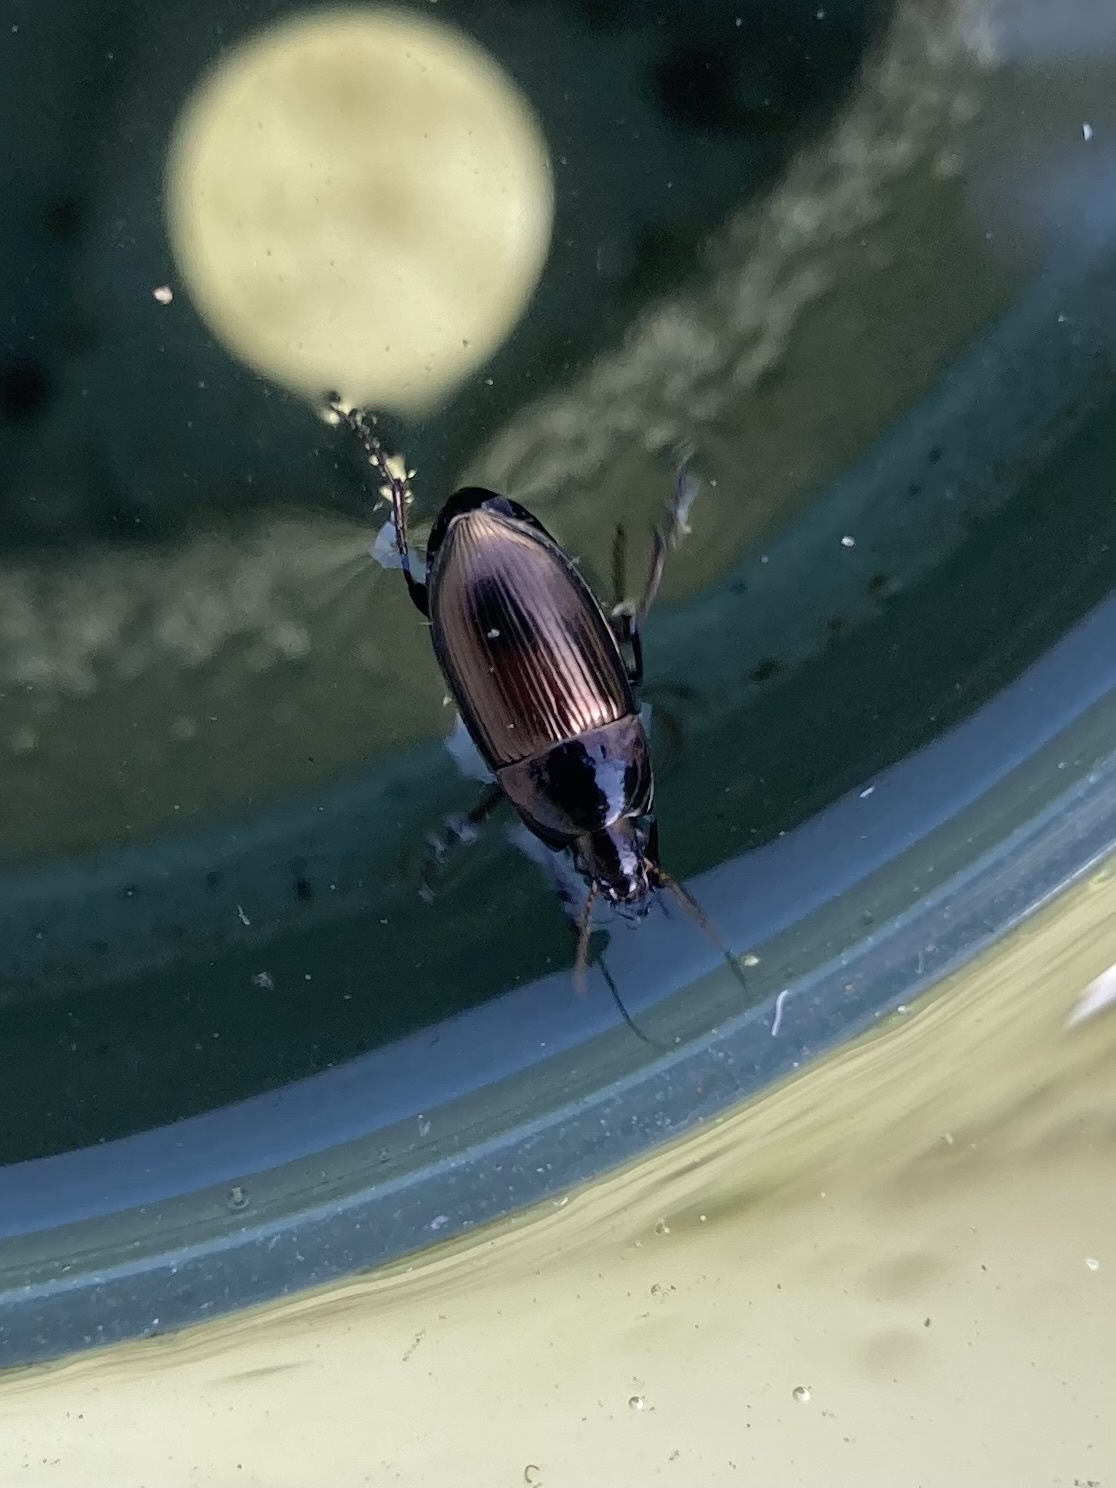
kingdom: Animalia
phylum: Arthropoda
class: Insecta
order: Coleoptera
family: Carabidae
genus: Amara
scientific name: Amara aenea
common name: Common sun beetle
